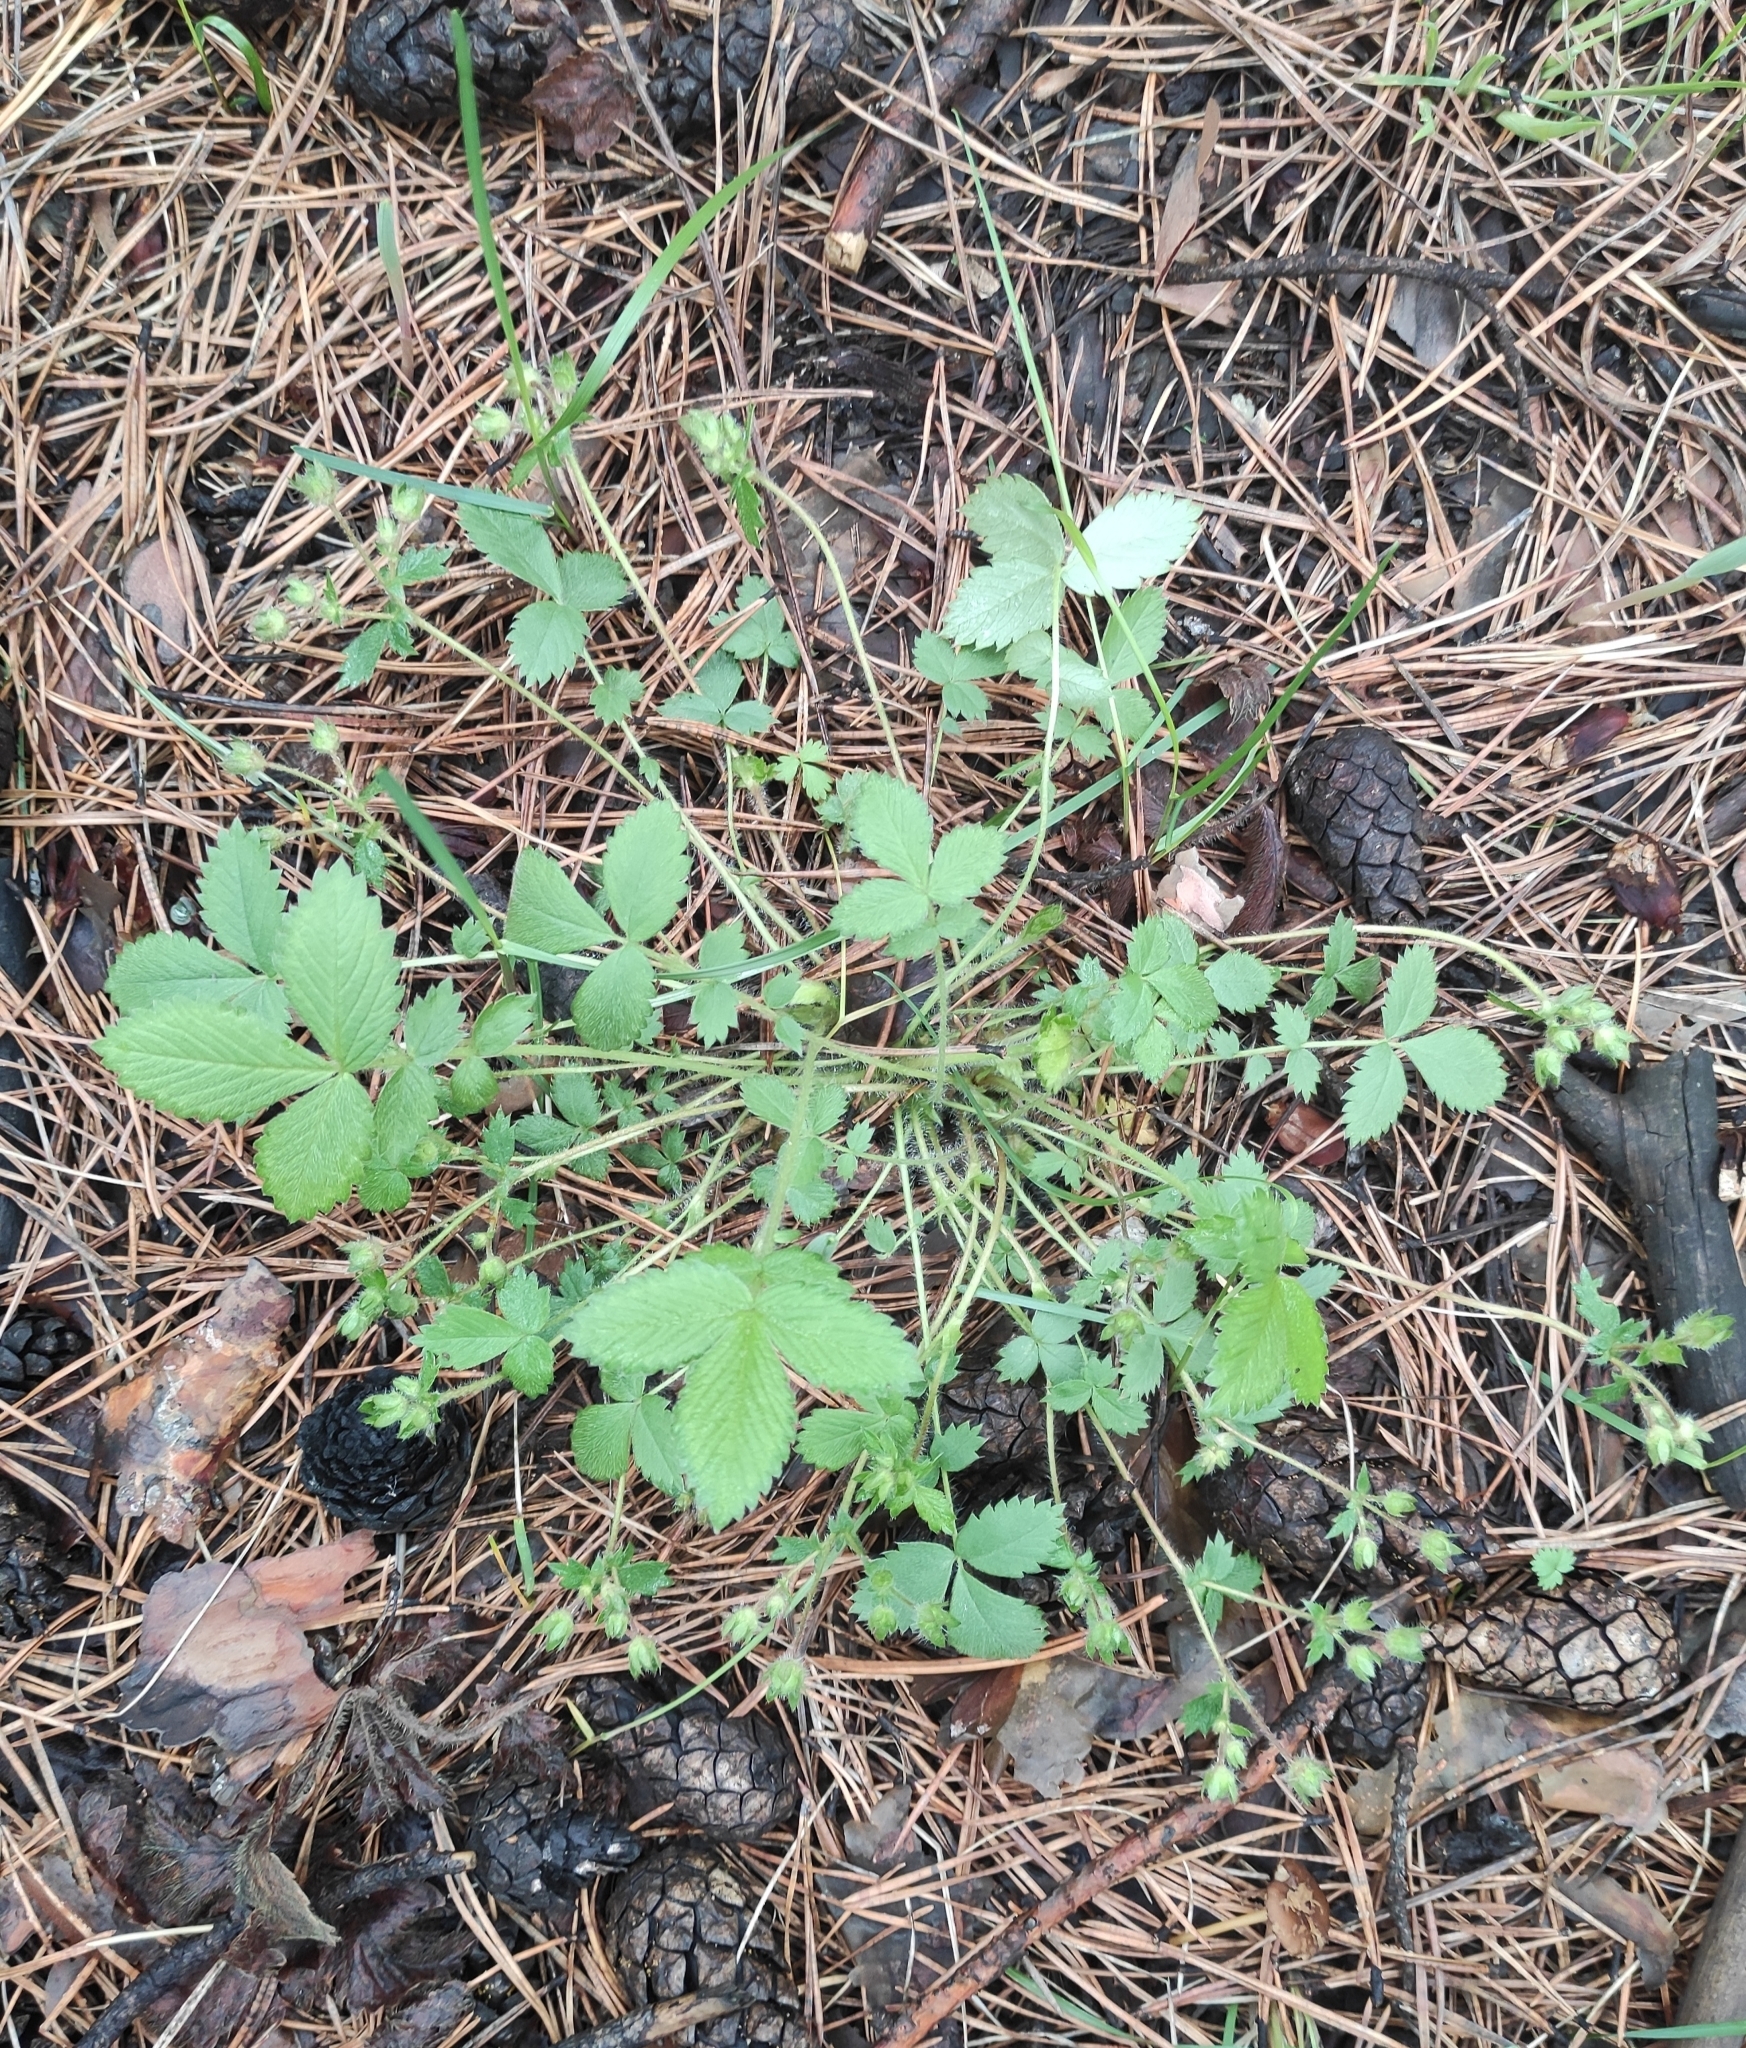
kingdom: Plantae
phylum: Tracheophyta
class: Magnoliopsida
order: Rosales
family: Rosaceae
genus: Potentilla
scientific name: Potentilla fragarioides
